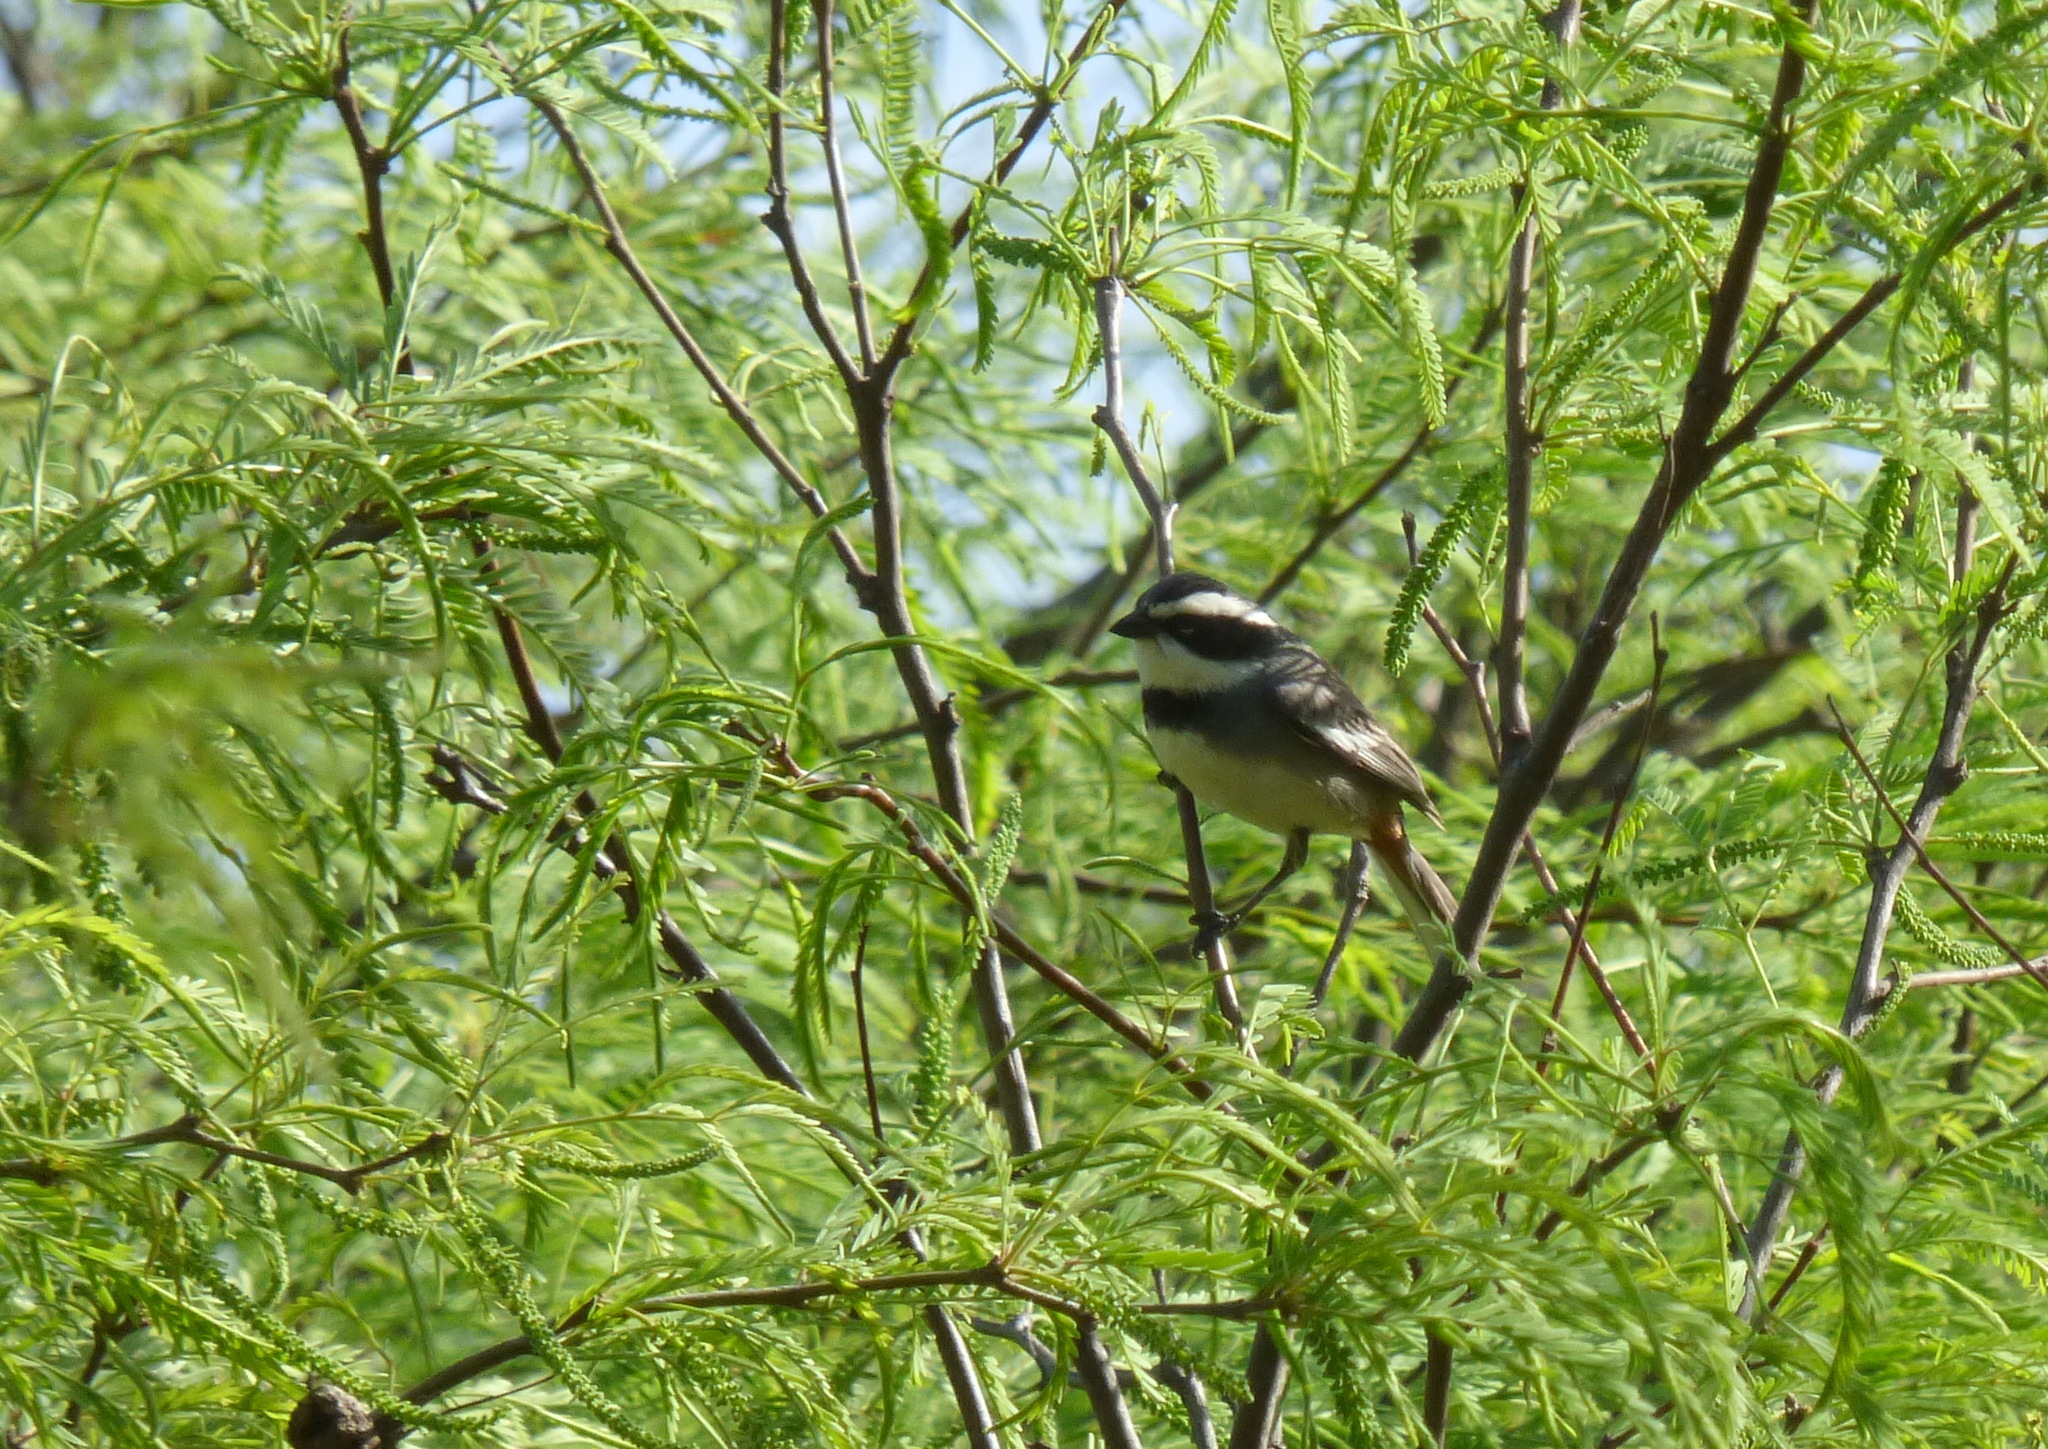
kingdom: Animalia
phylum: Chordata
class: Aves
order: Passeriformes
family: Thraupidae
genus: Microspingus
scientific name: Microspingus torquatus
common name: Ringed warbling-finch
